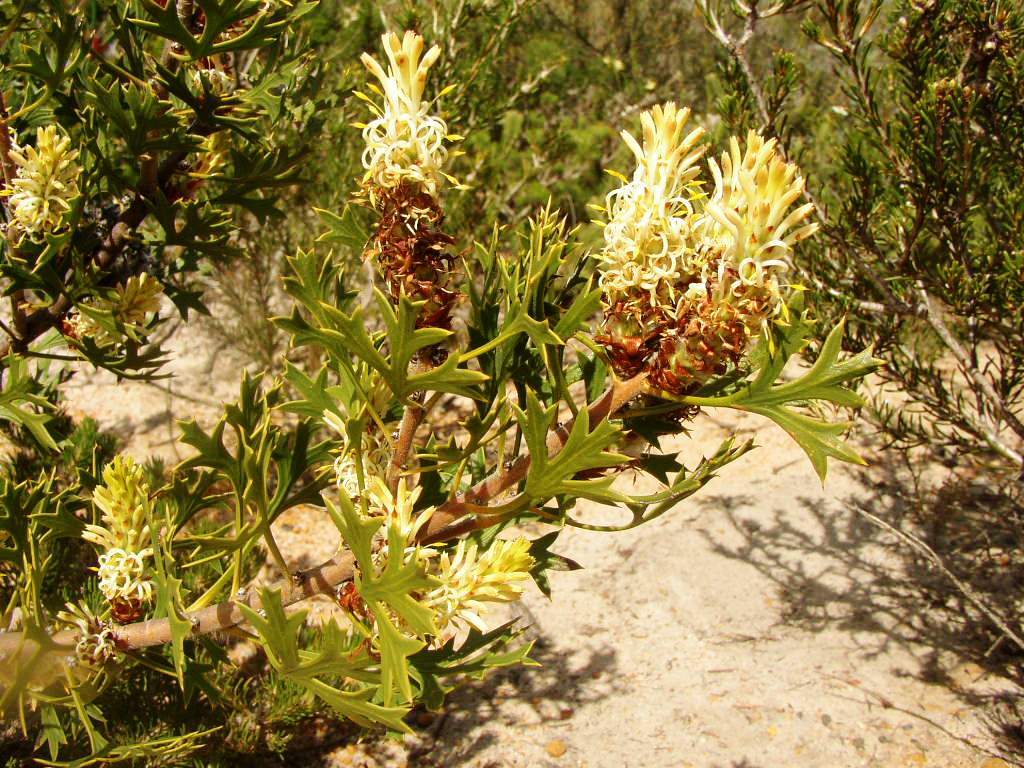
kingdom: Plantae
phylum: Tracheophyta
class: Magnoliopsida
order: Proteales
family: Proteaceae
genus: Petrophile
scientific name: Petrophile macrostachya
